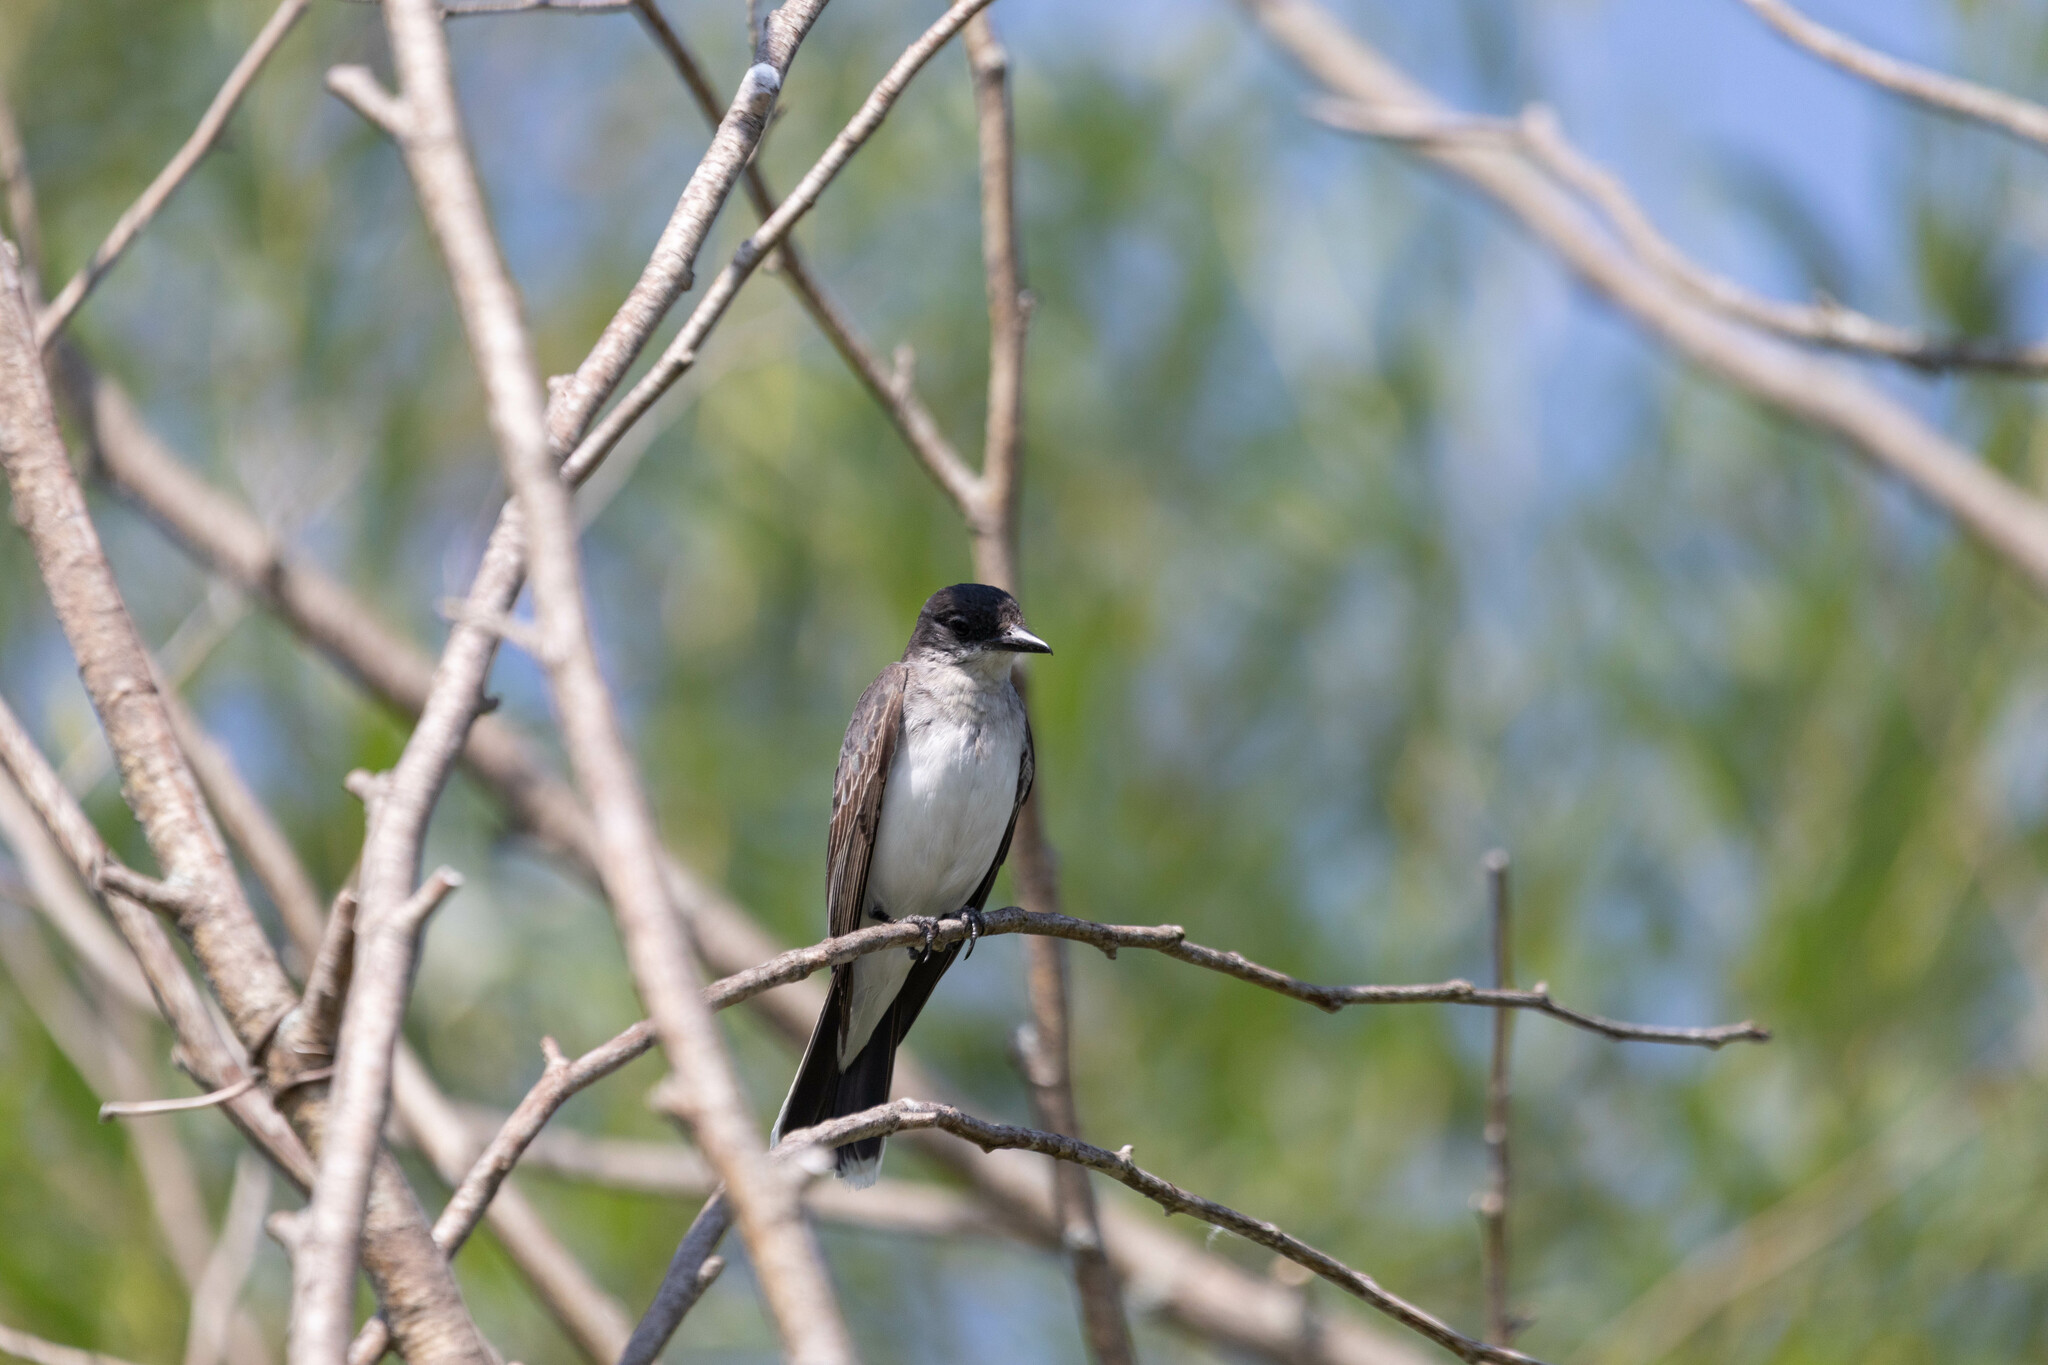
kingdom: Animalia
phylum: Chordata
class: Aves
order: Passeriformes
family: Tyrannidae
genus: Tyrannus
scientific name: Tyrannus tyrannus
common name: Eastern kingbird
